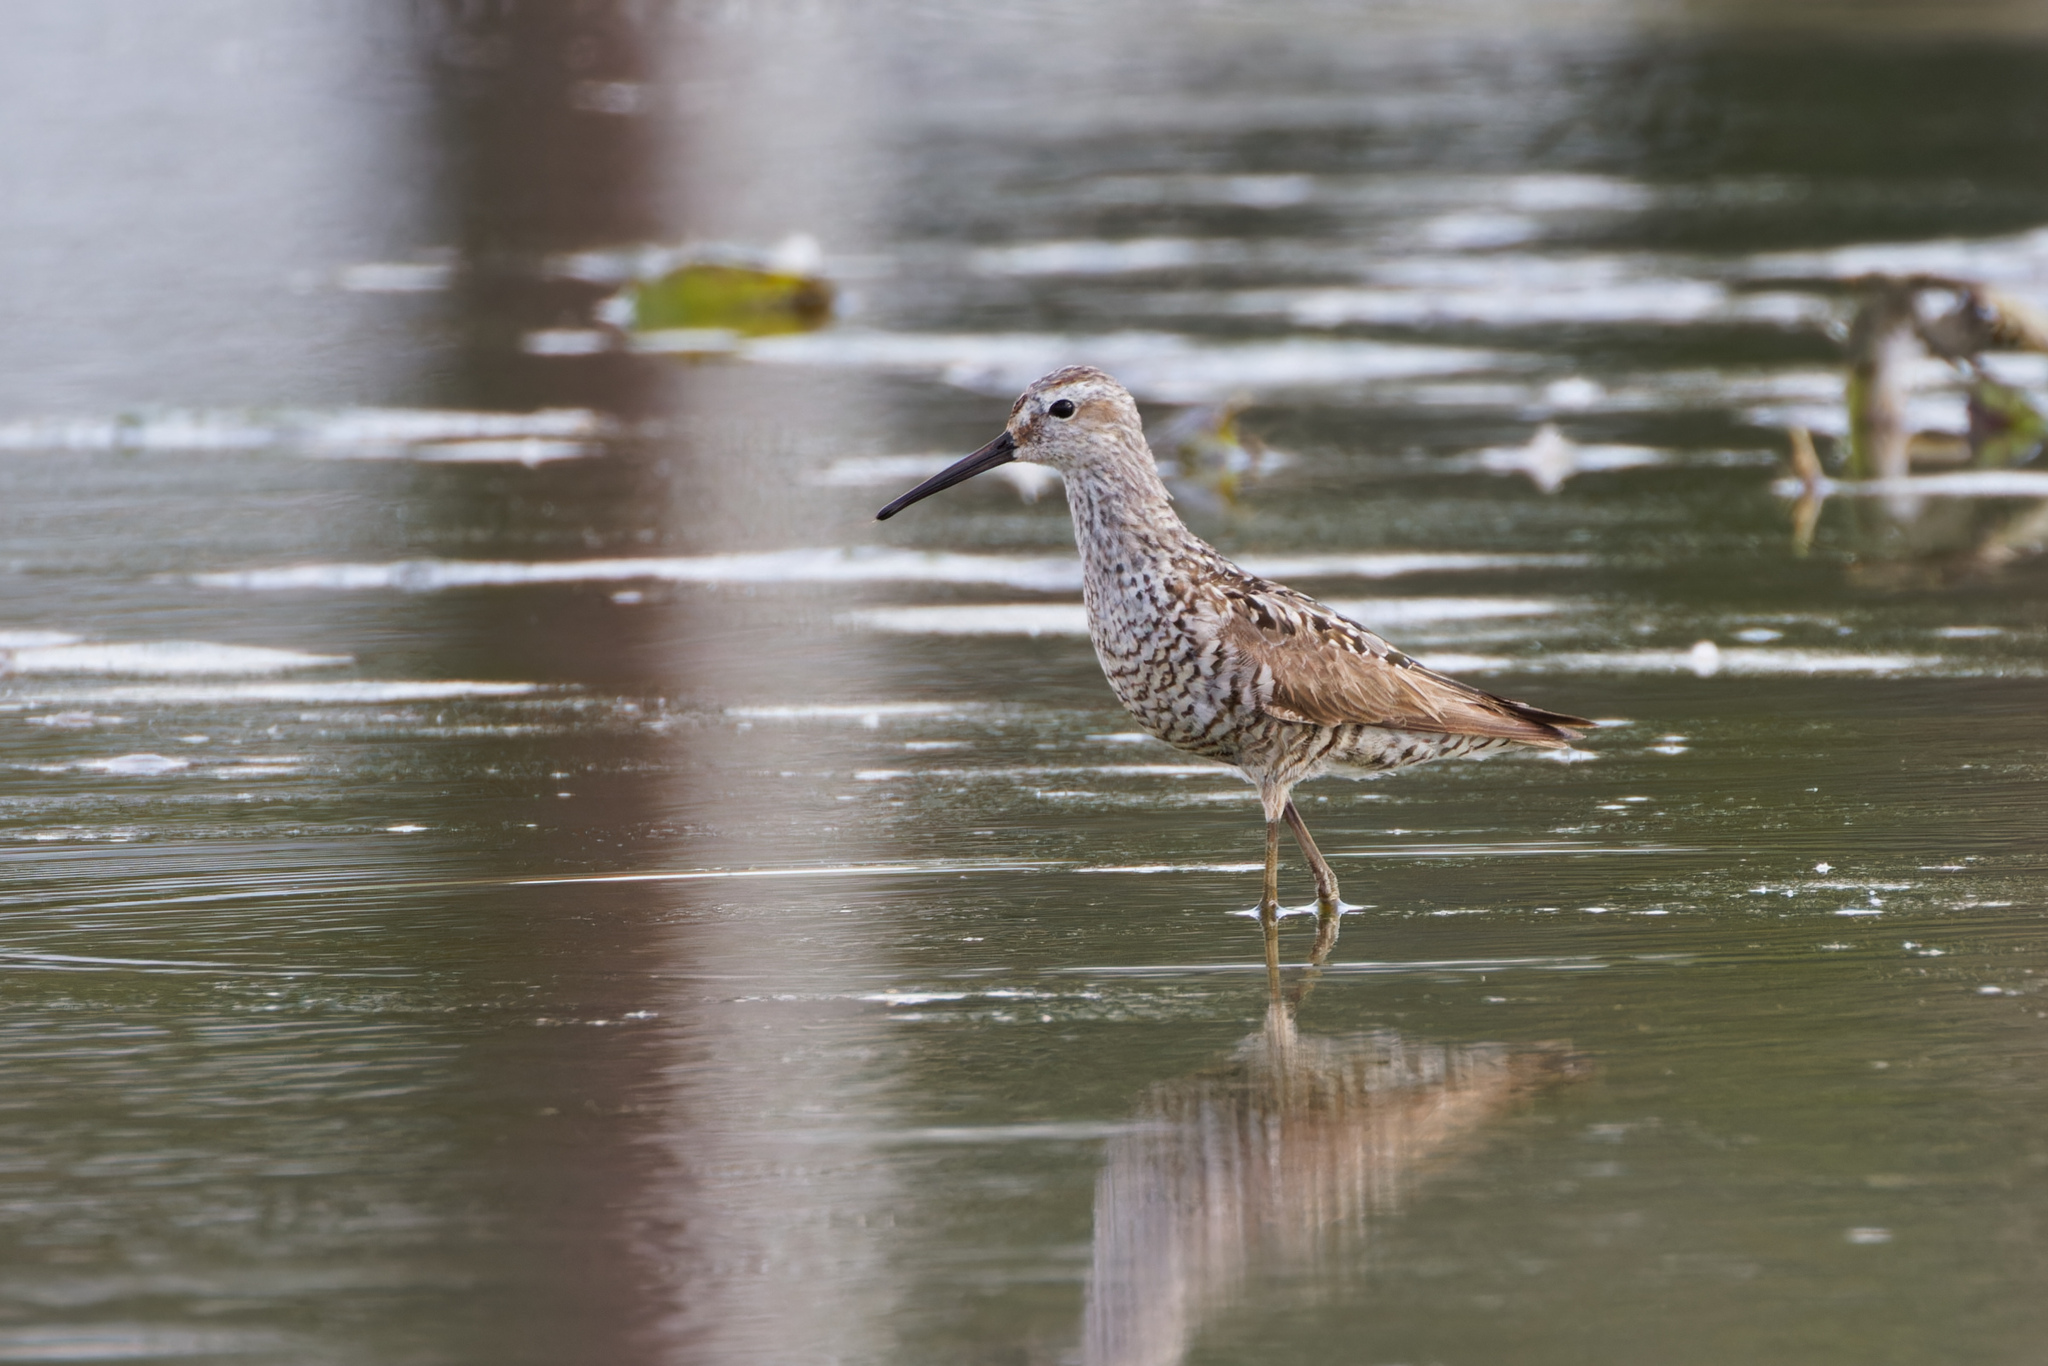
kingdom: Animalia
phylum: Chordata
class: Aves
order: Charadriiformes
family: Scolopacidae
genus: Calidris
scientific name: Calidris himantopus
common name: Stilt sandpiper
